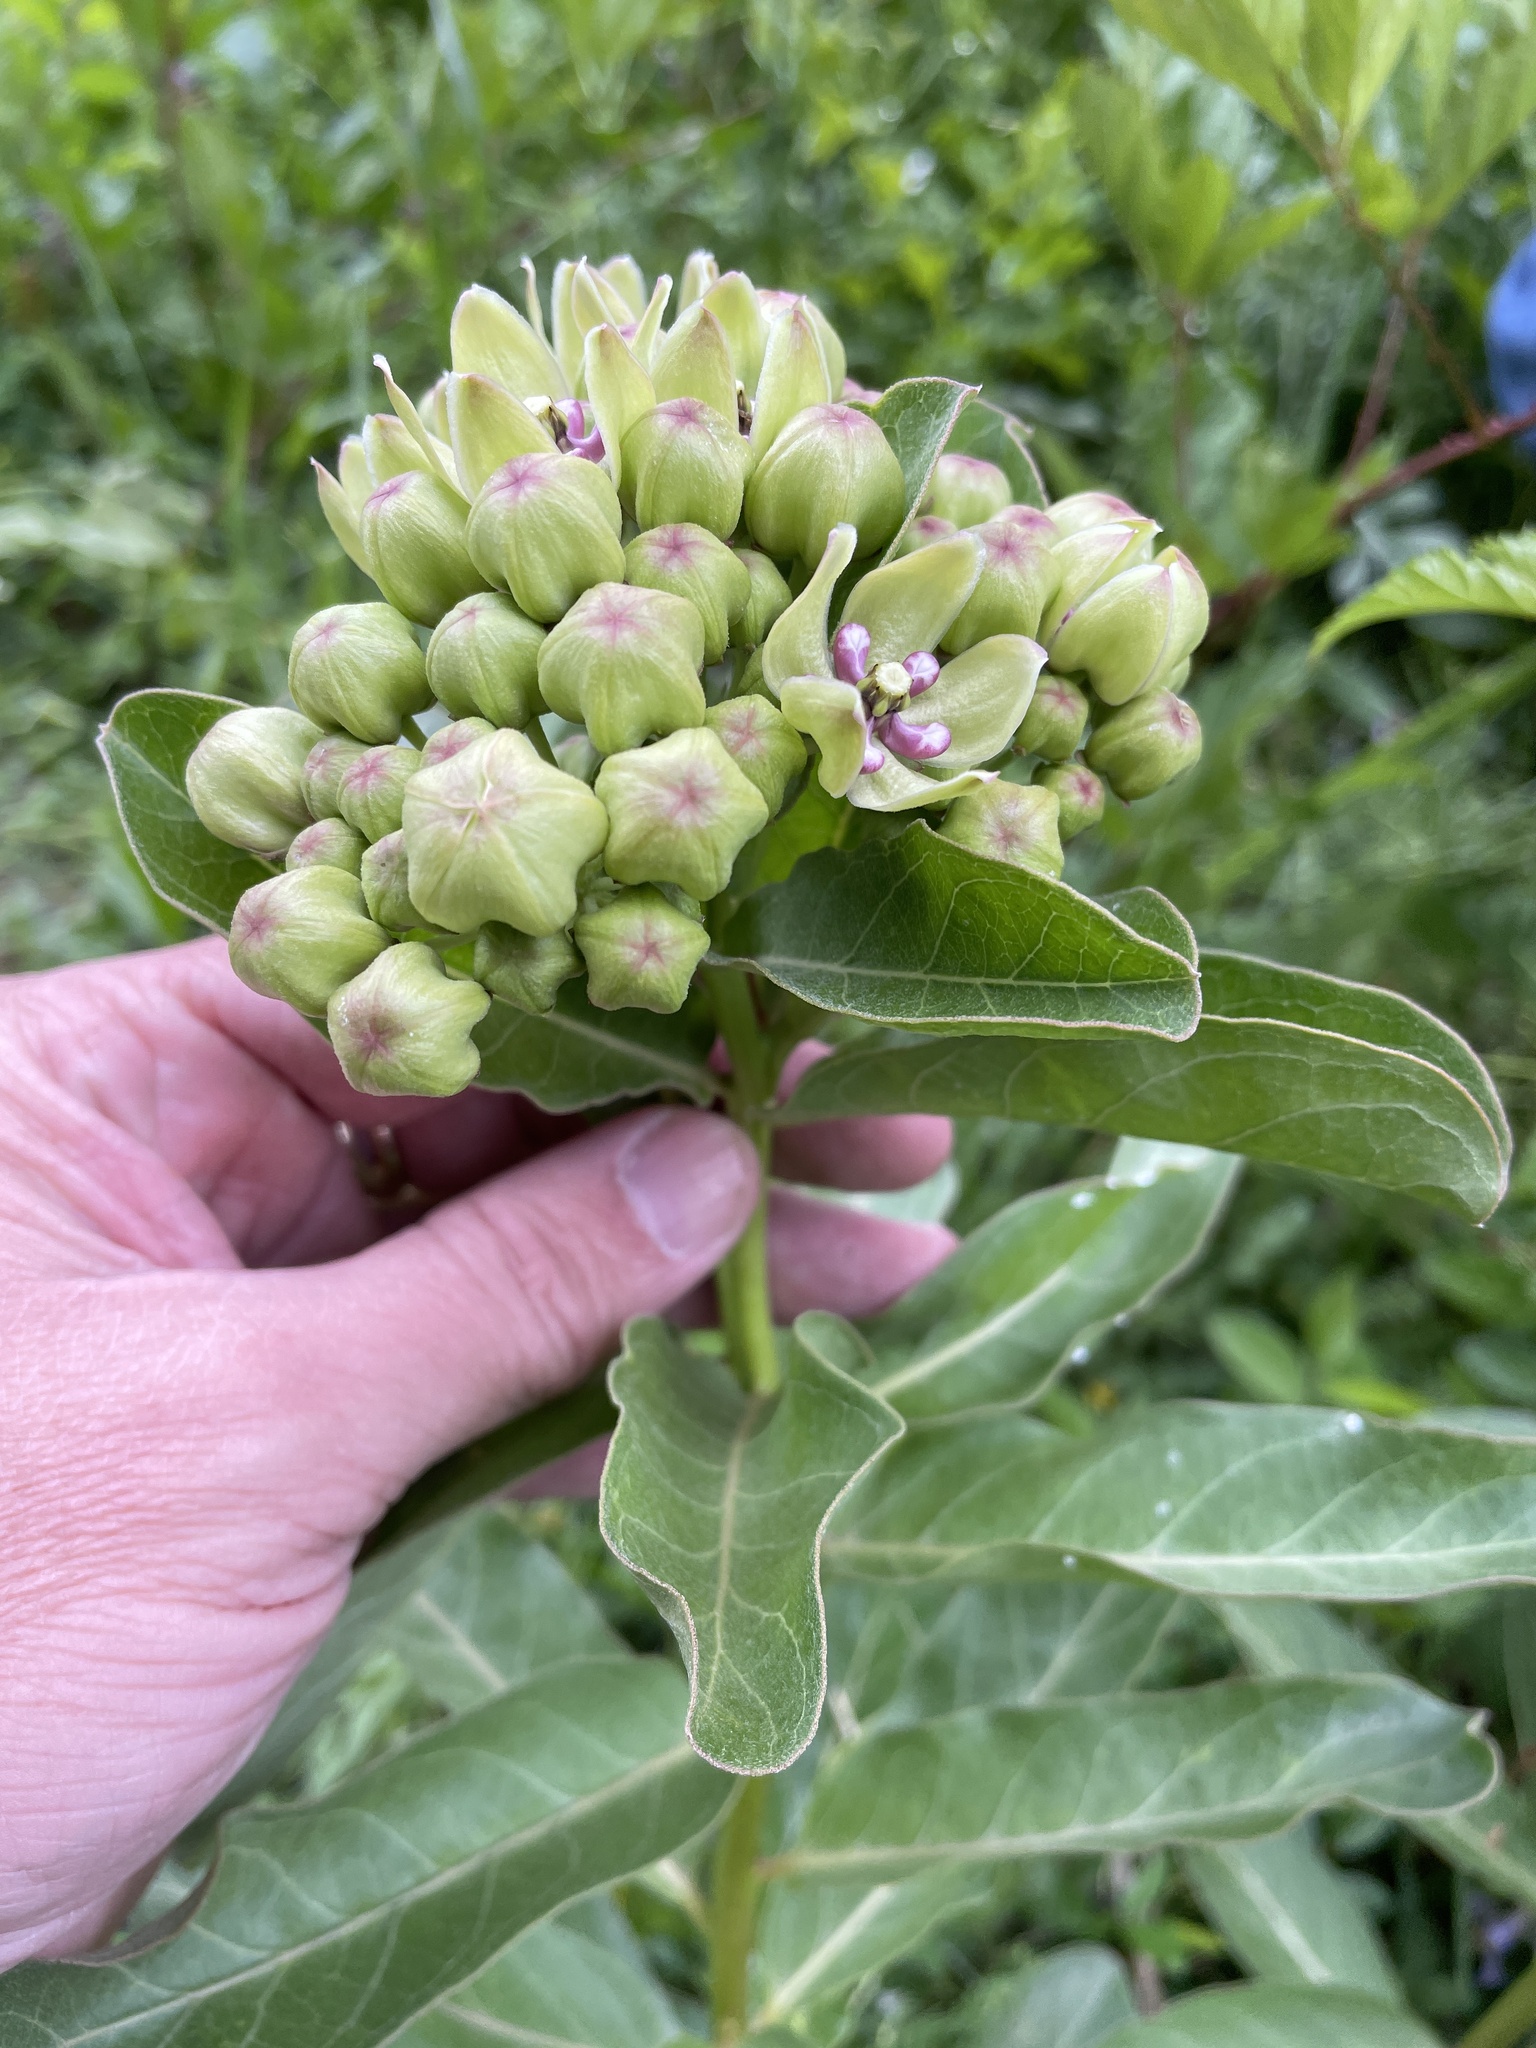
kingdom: Plantae
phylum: Tracheophyta
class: Magnoliopsida
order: Gentianales
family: Apocynaceae
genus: Asclepias
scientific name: Asclepias viridis
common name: Antelope-horns
